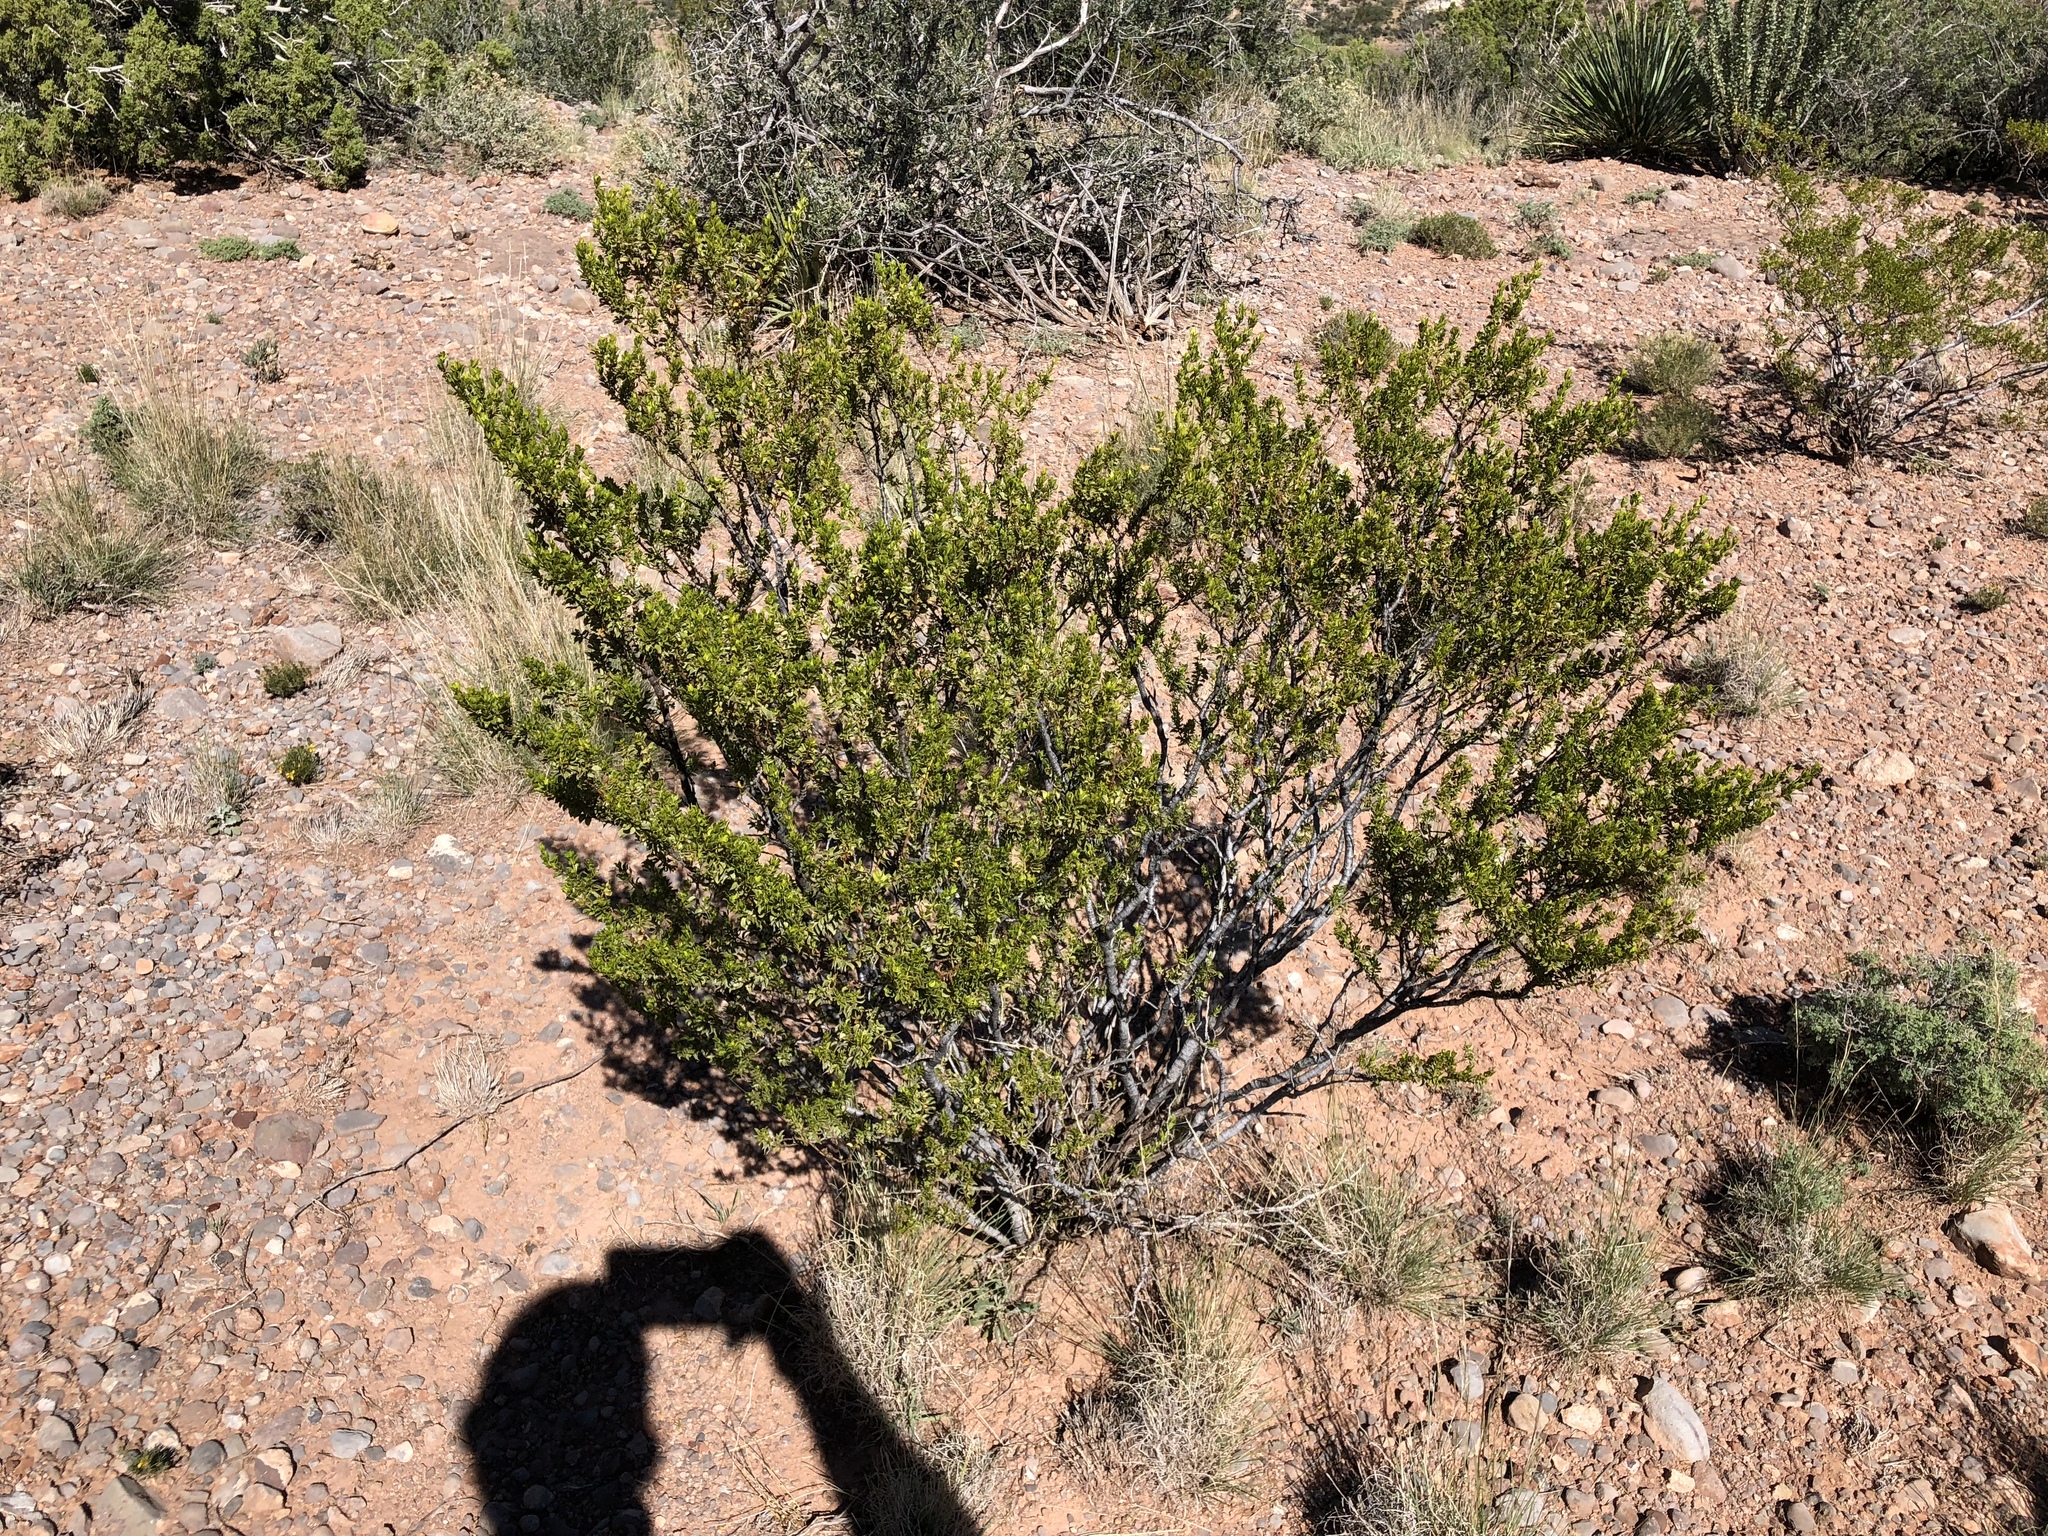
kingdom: Plantae
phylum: Tracheophyta
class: Magnoliopsida
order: Zygophyllales
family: Zygophyllaceae
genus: Larrea
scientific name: Larrea tridentata
